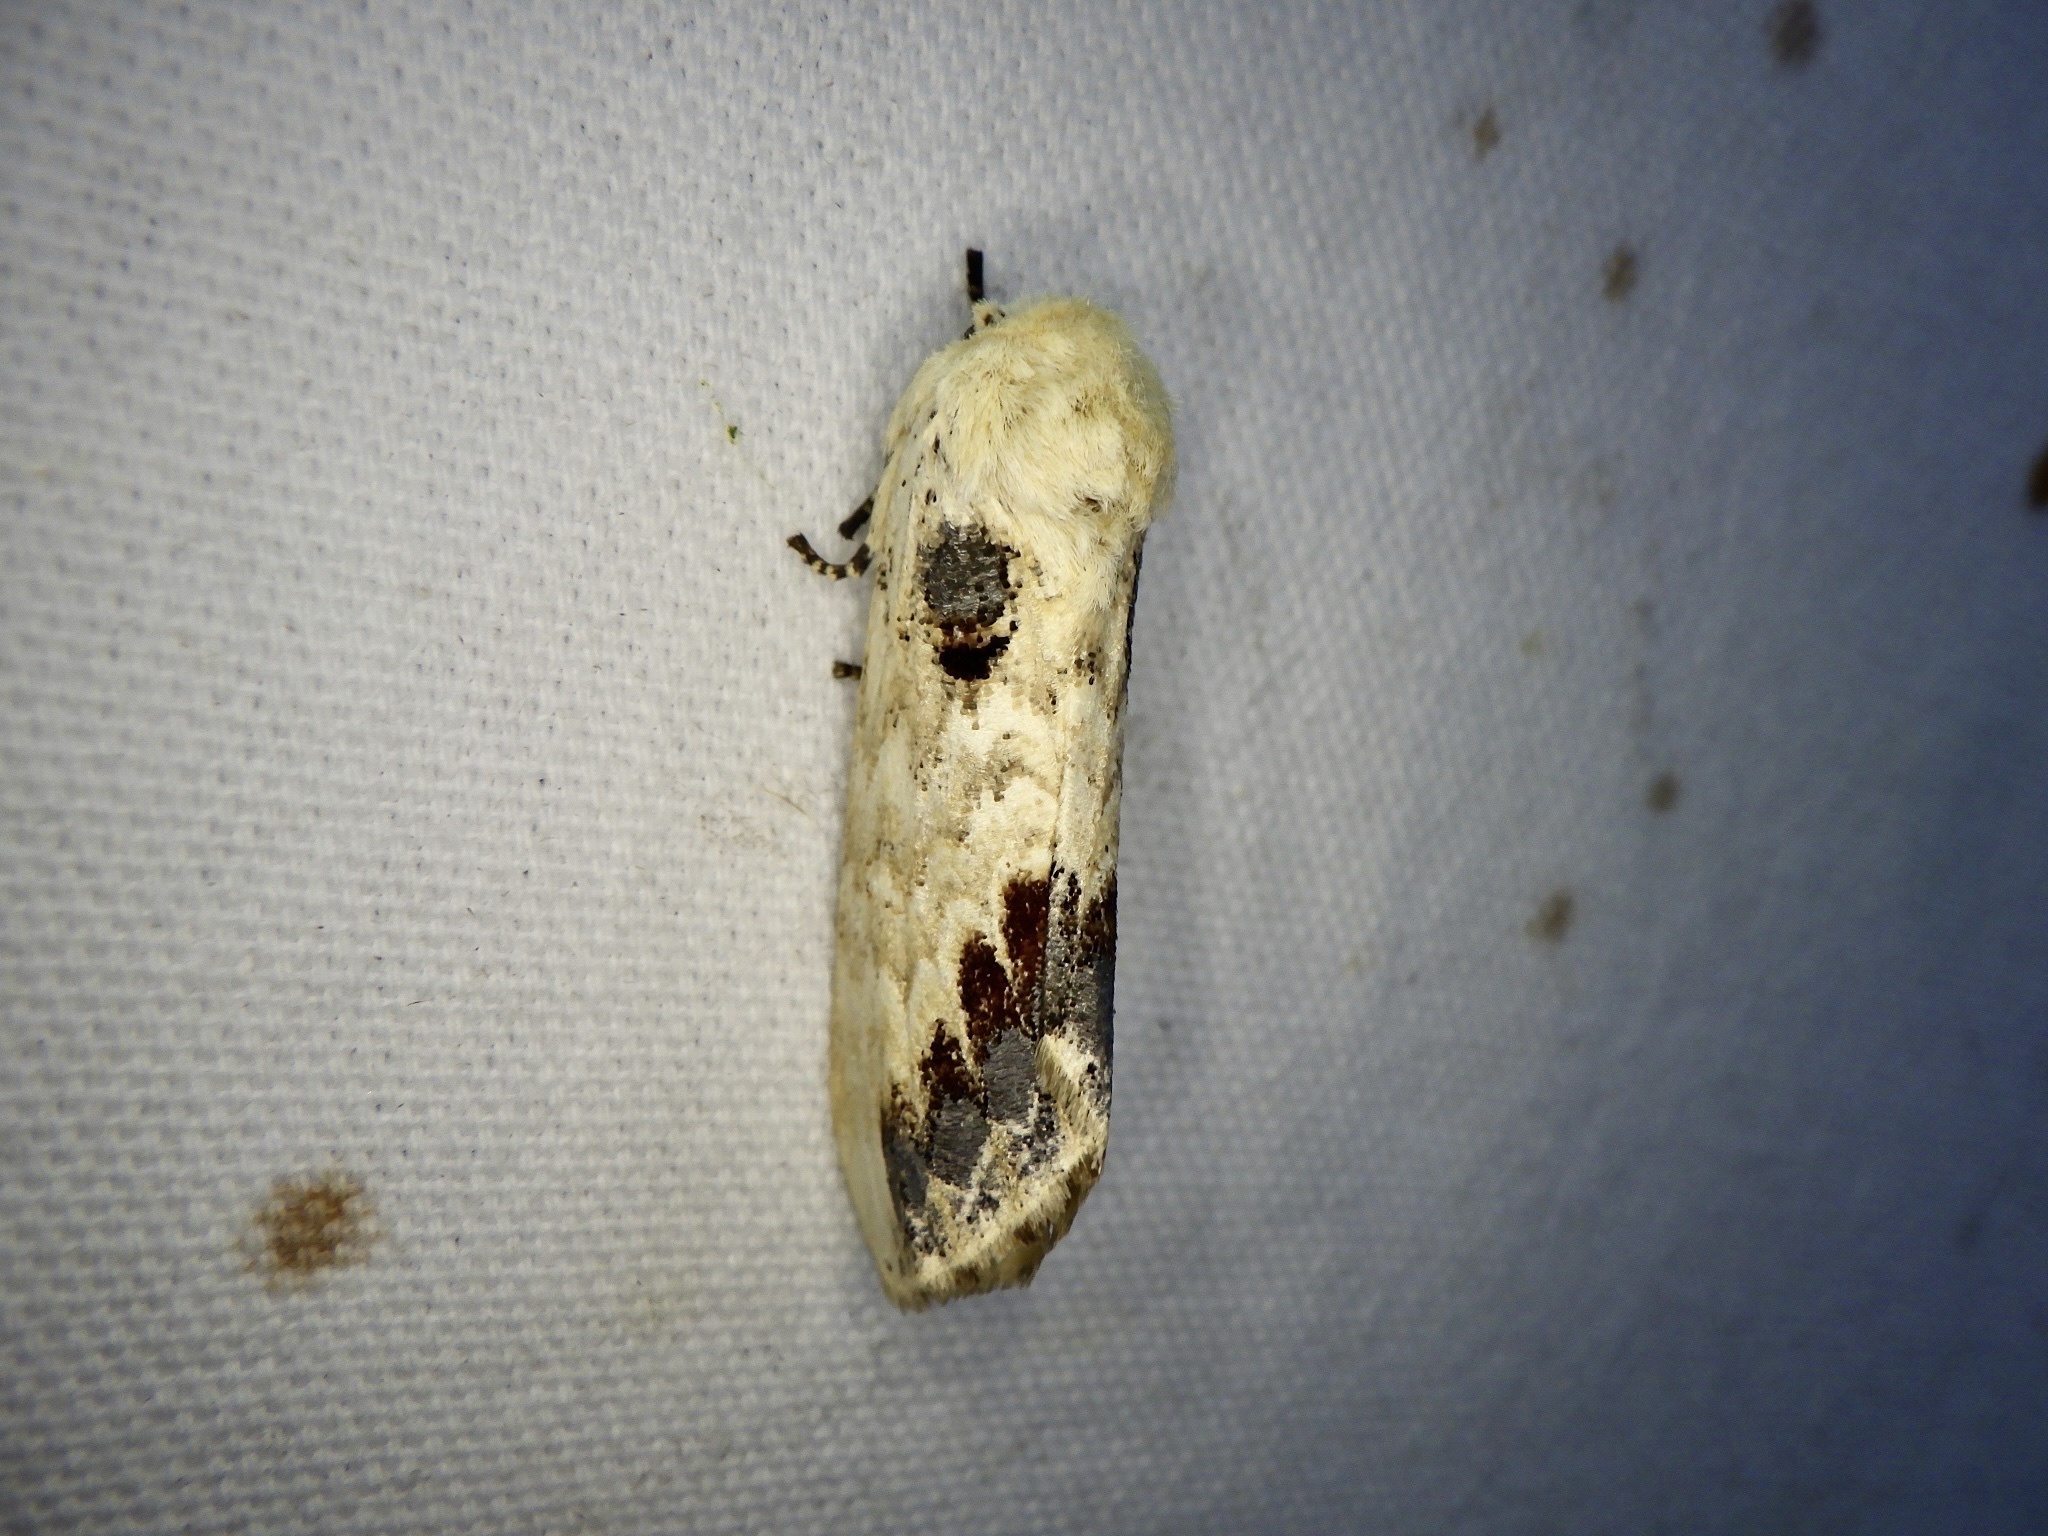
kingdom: Animalia
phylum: Arthropoda
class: Insecta
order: Lepidoptera
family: Notodontidae
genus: Phalera
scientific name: Phalera flavescens
